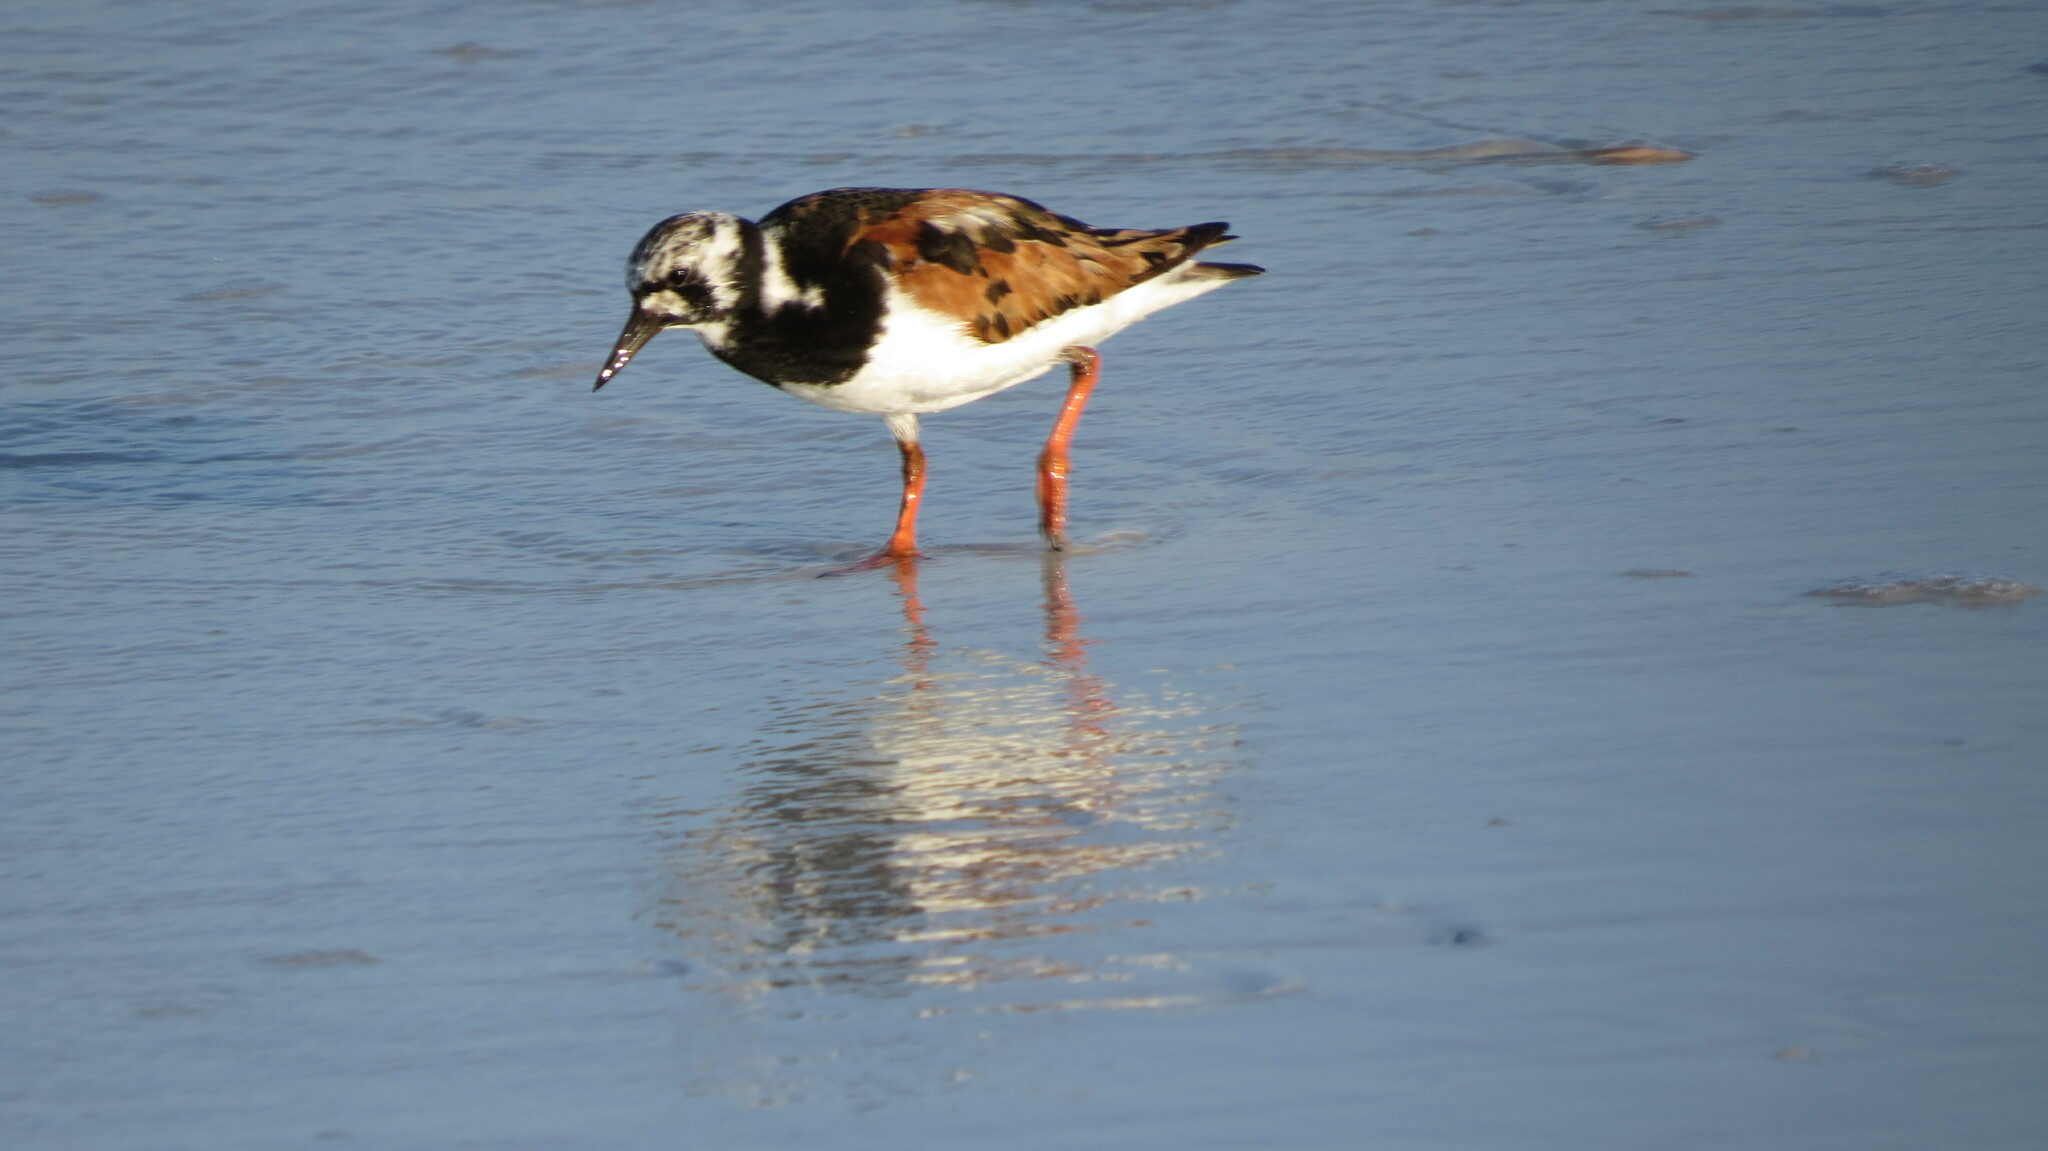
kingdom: Animalia
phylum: Chordata
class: Aves
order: Charadriiformes
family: Scolopacidae
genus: Arenaria
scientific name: Arenaria interpres
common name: Ruddy turnstone
